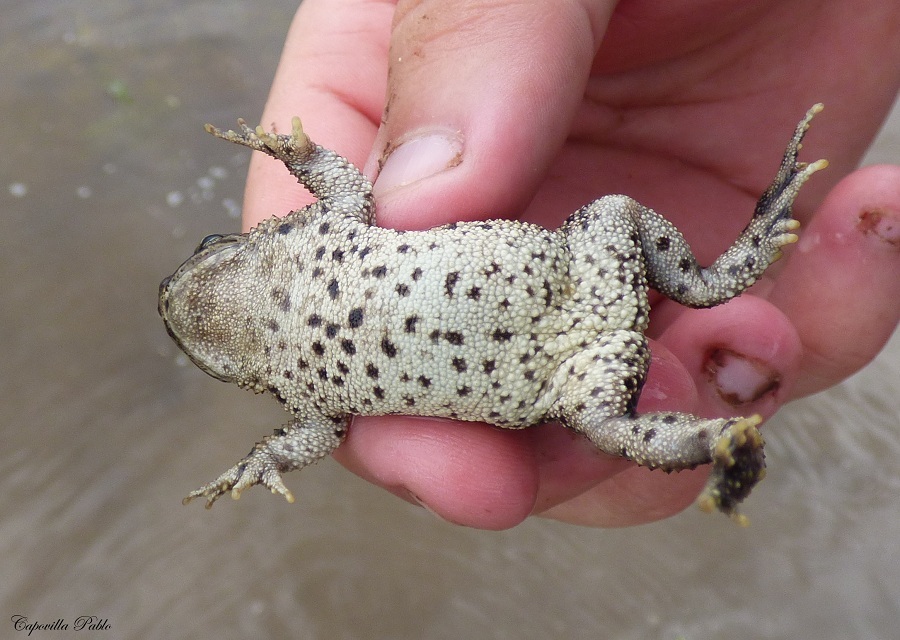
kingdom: Animalia
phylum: Chordata
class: Amphibia
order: Anura
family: Bufonidae
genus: Rhinella
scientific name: Rhinella dorbignyi
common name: D´orbigny’s toad
